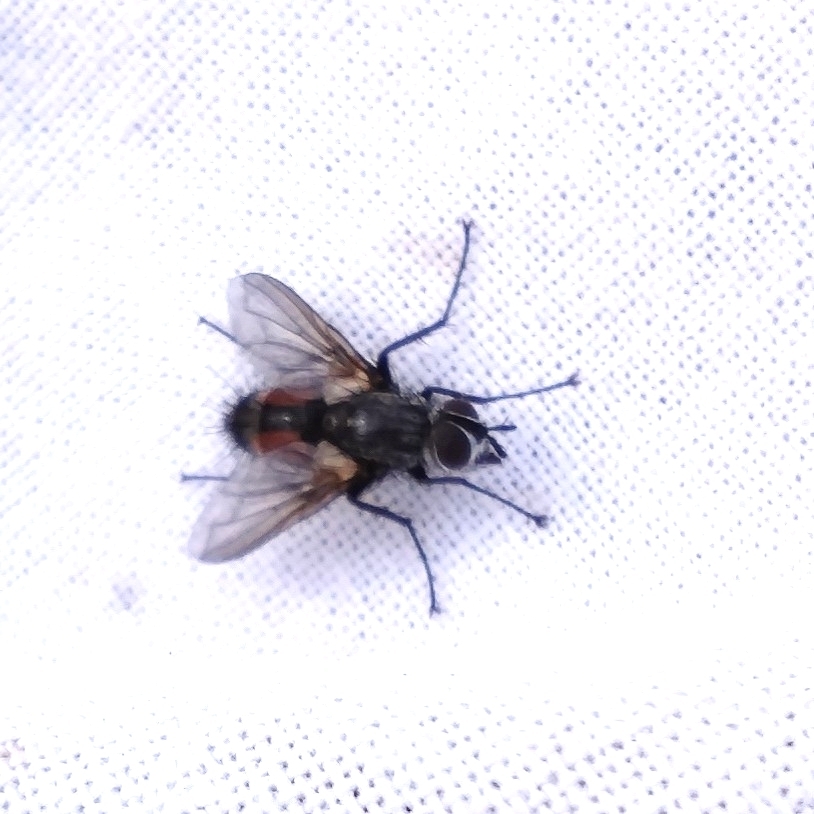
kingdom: Animalia
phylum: Arthropoda
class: Insecta
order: Diptera
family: Tachinidae
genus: Eriothrix
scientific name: Eriothrix rufomaculatus
